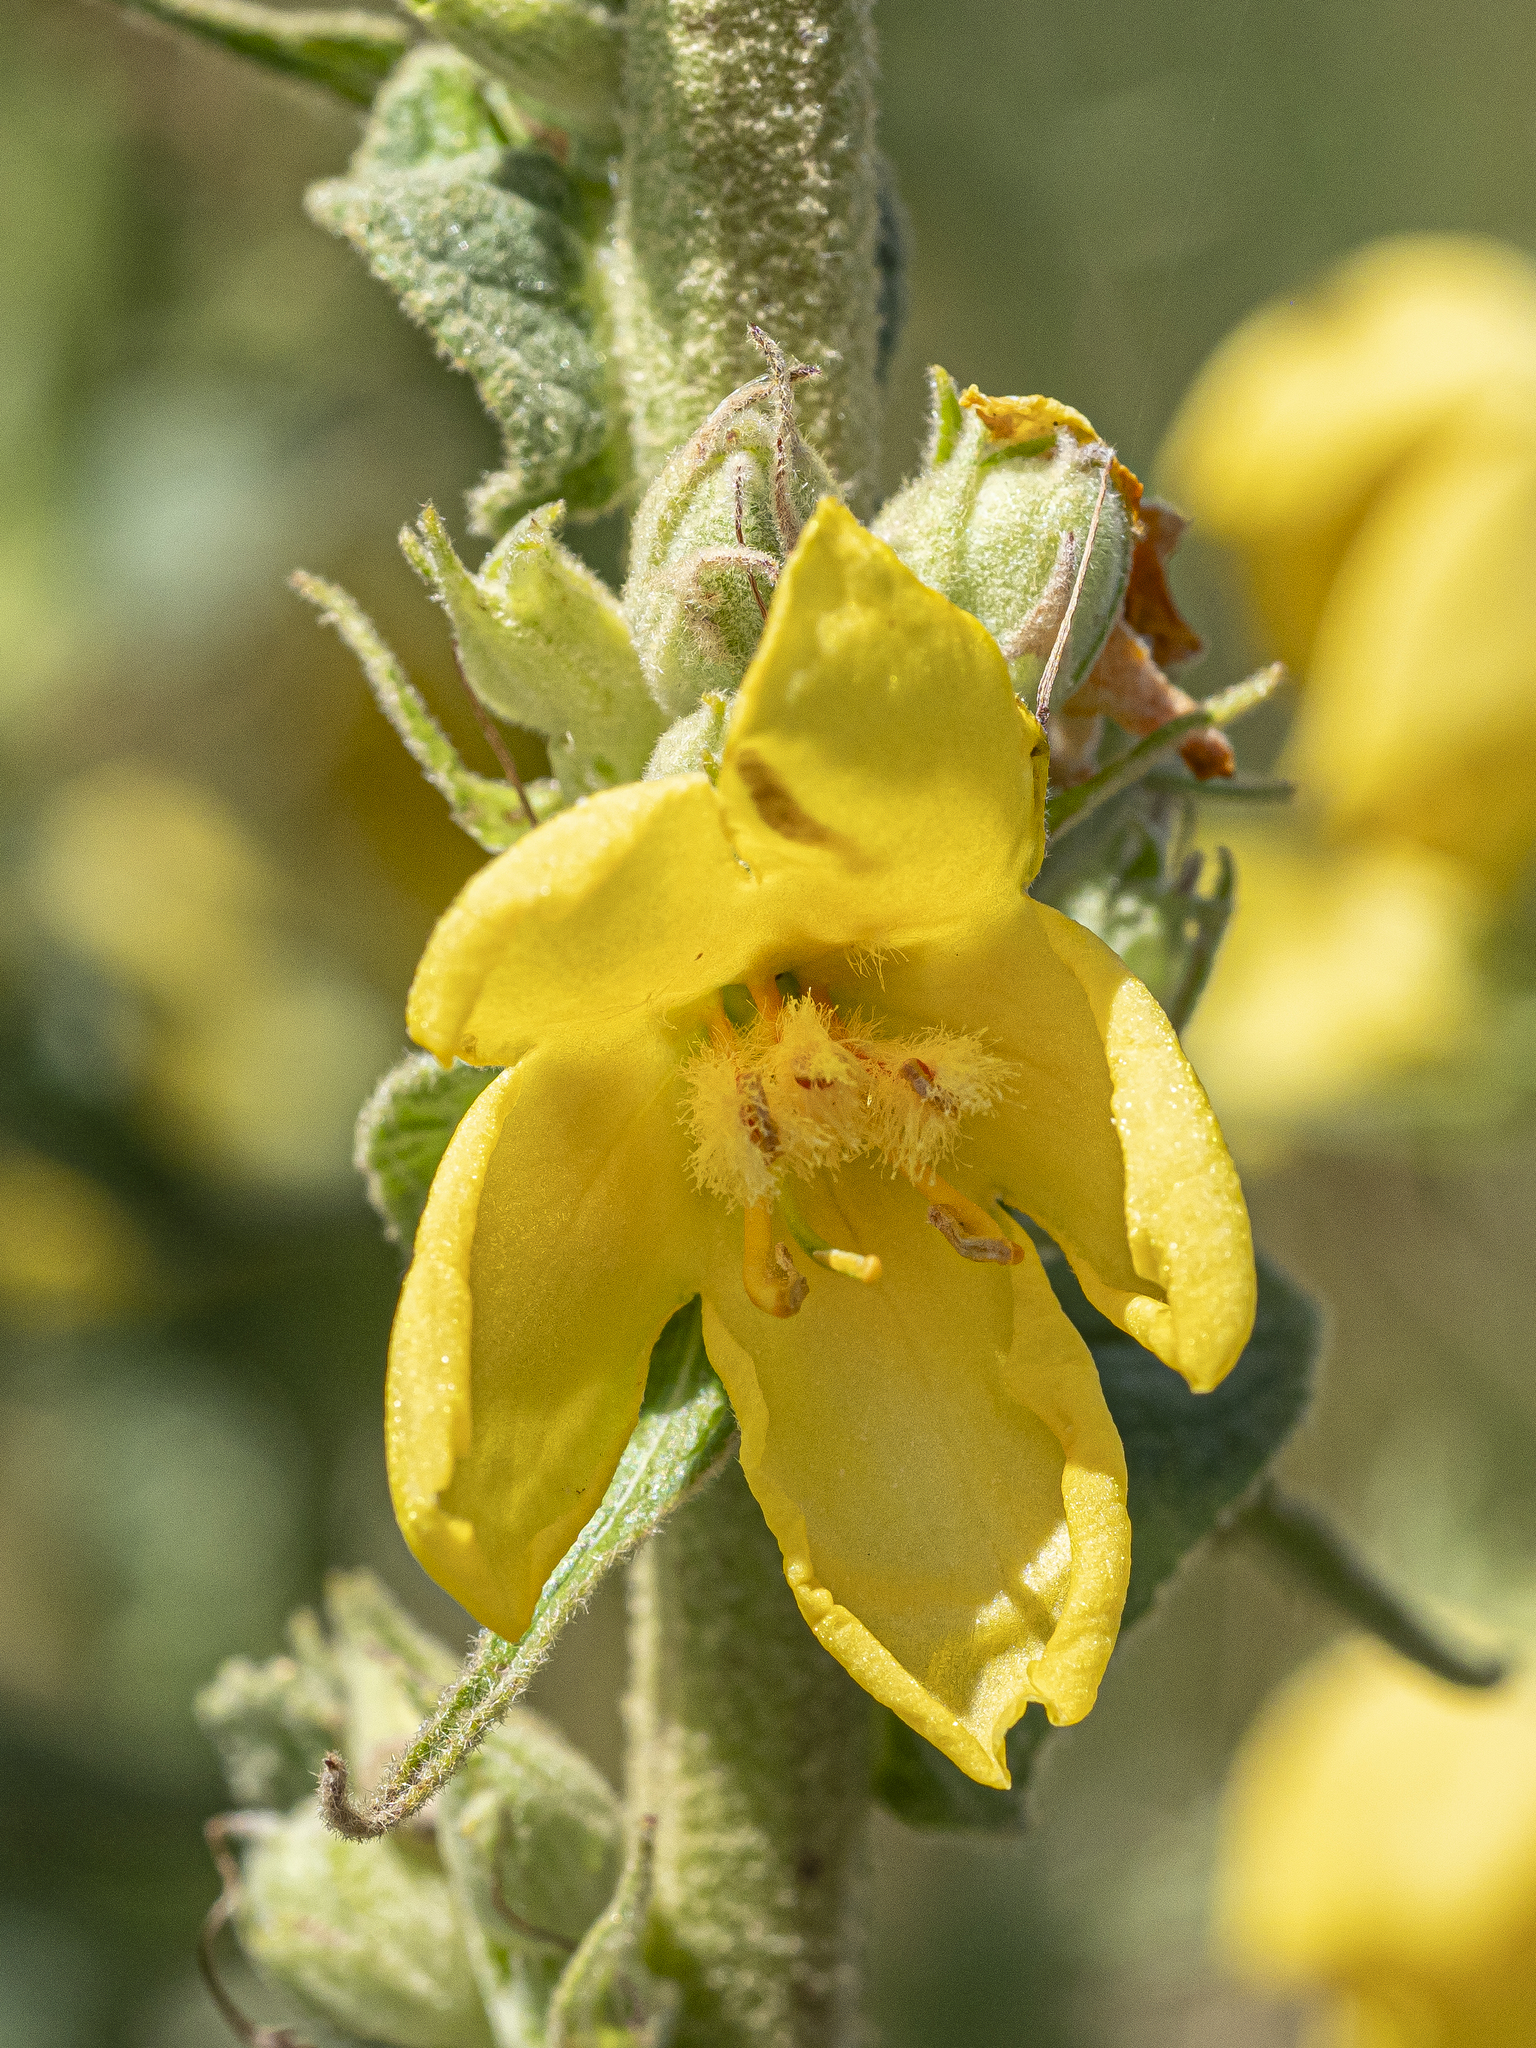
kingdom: Plantae
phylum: Tracheophyta
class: Magnoliopsida
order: Lamiales
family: Scrophulariaceae
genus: Verbascum
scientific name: Verbascum phlomoides
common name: Orange mullein
